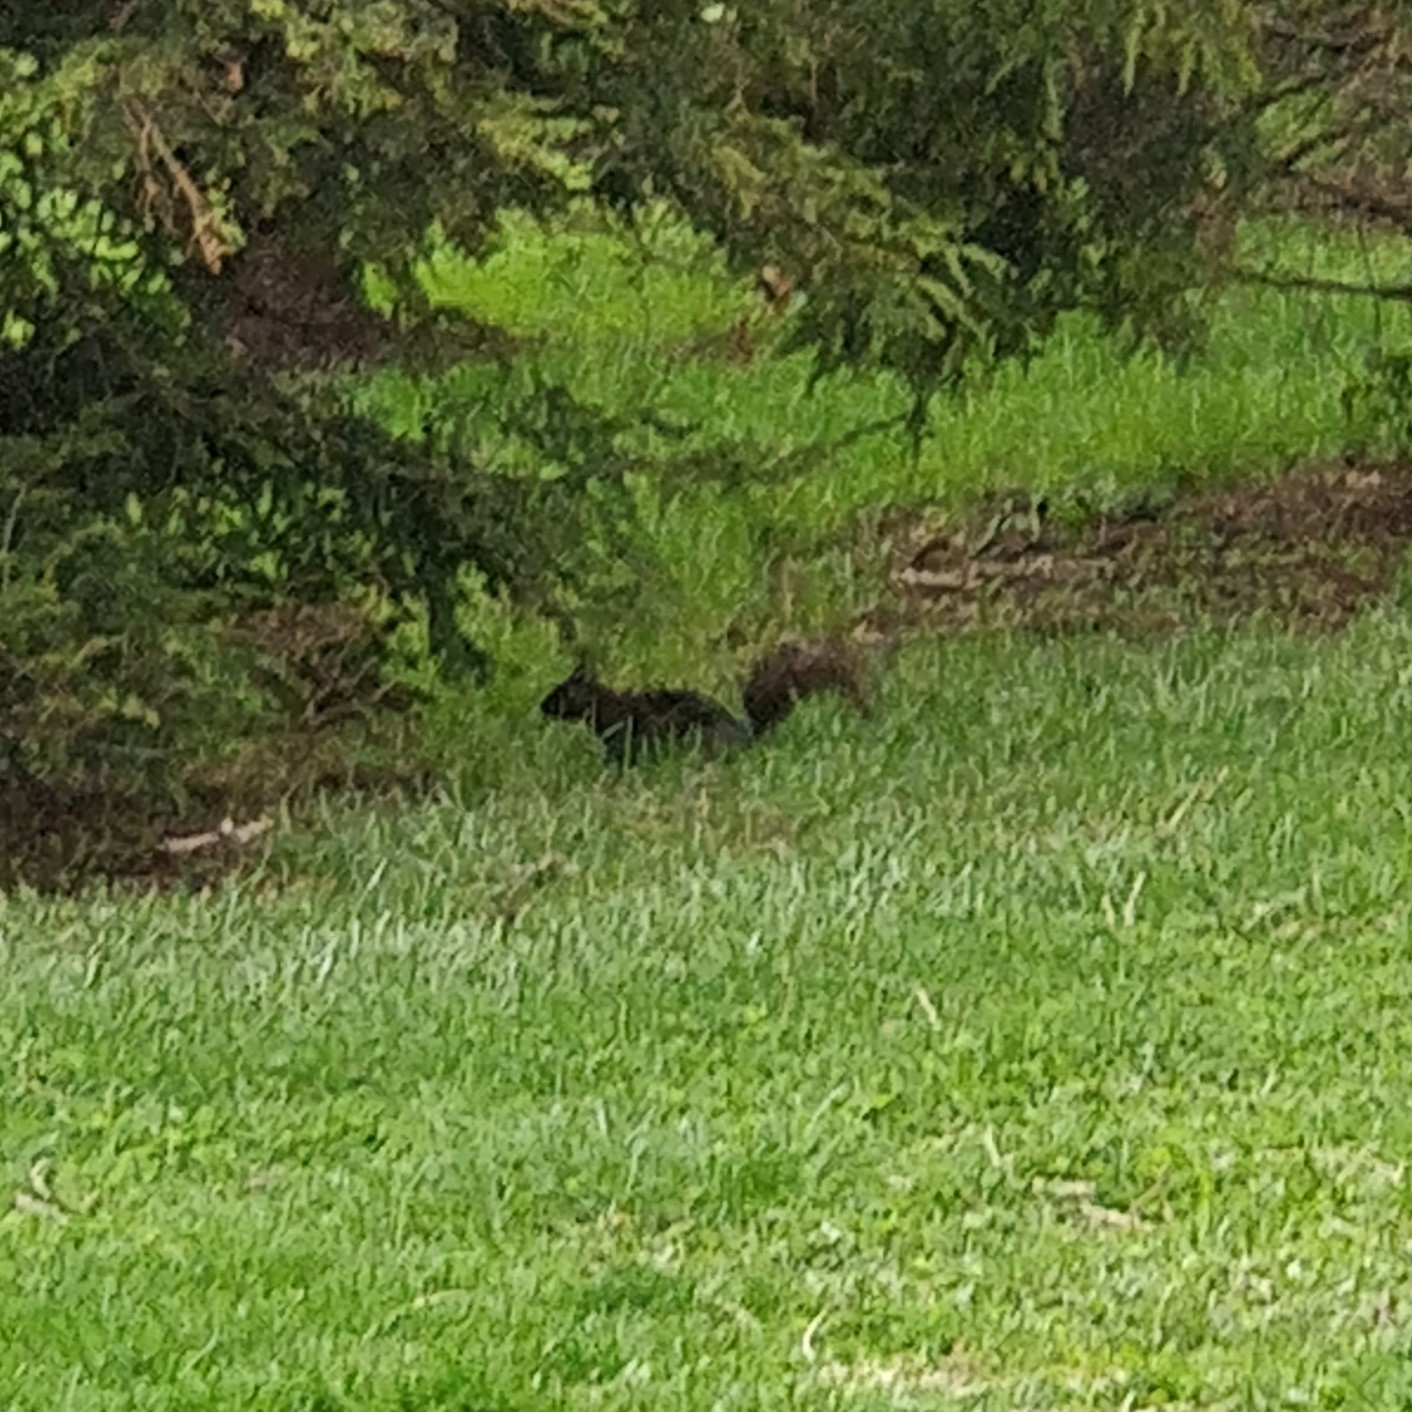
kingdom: Animalia
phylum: Chordata
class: Mammalia
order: Rodentia
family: Sciuridae
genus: Sciurus
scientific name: Sciurus carolinensis
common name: Eastern gray squirrel
